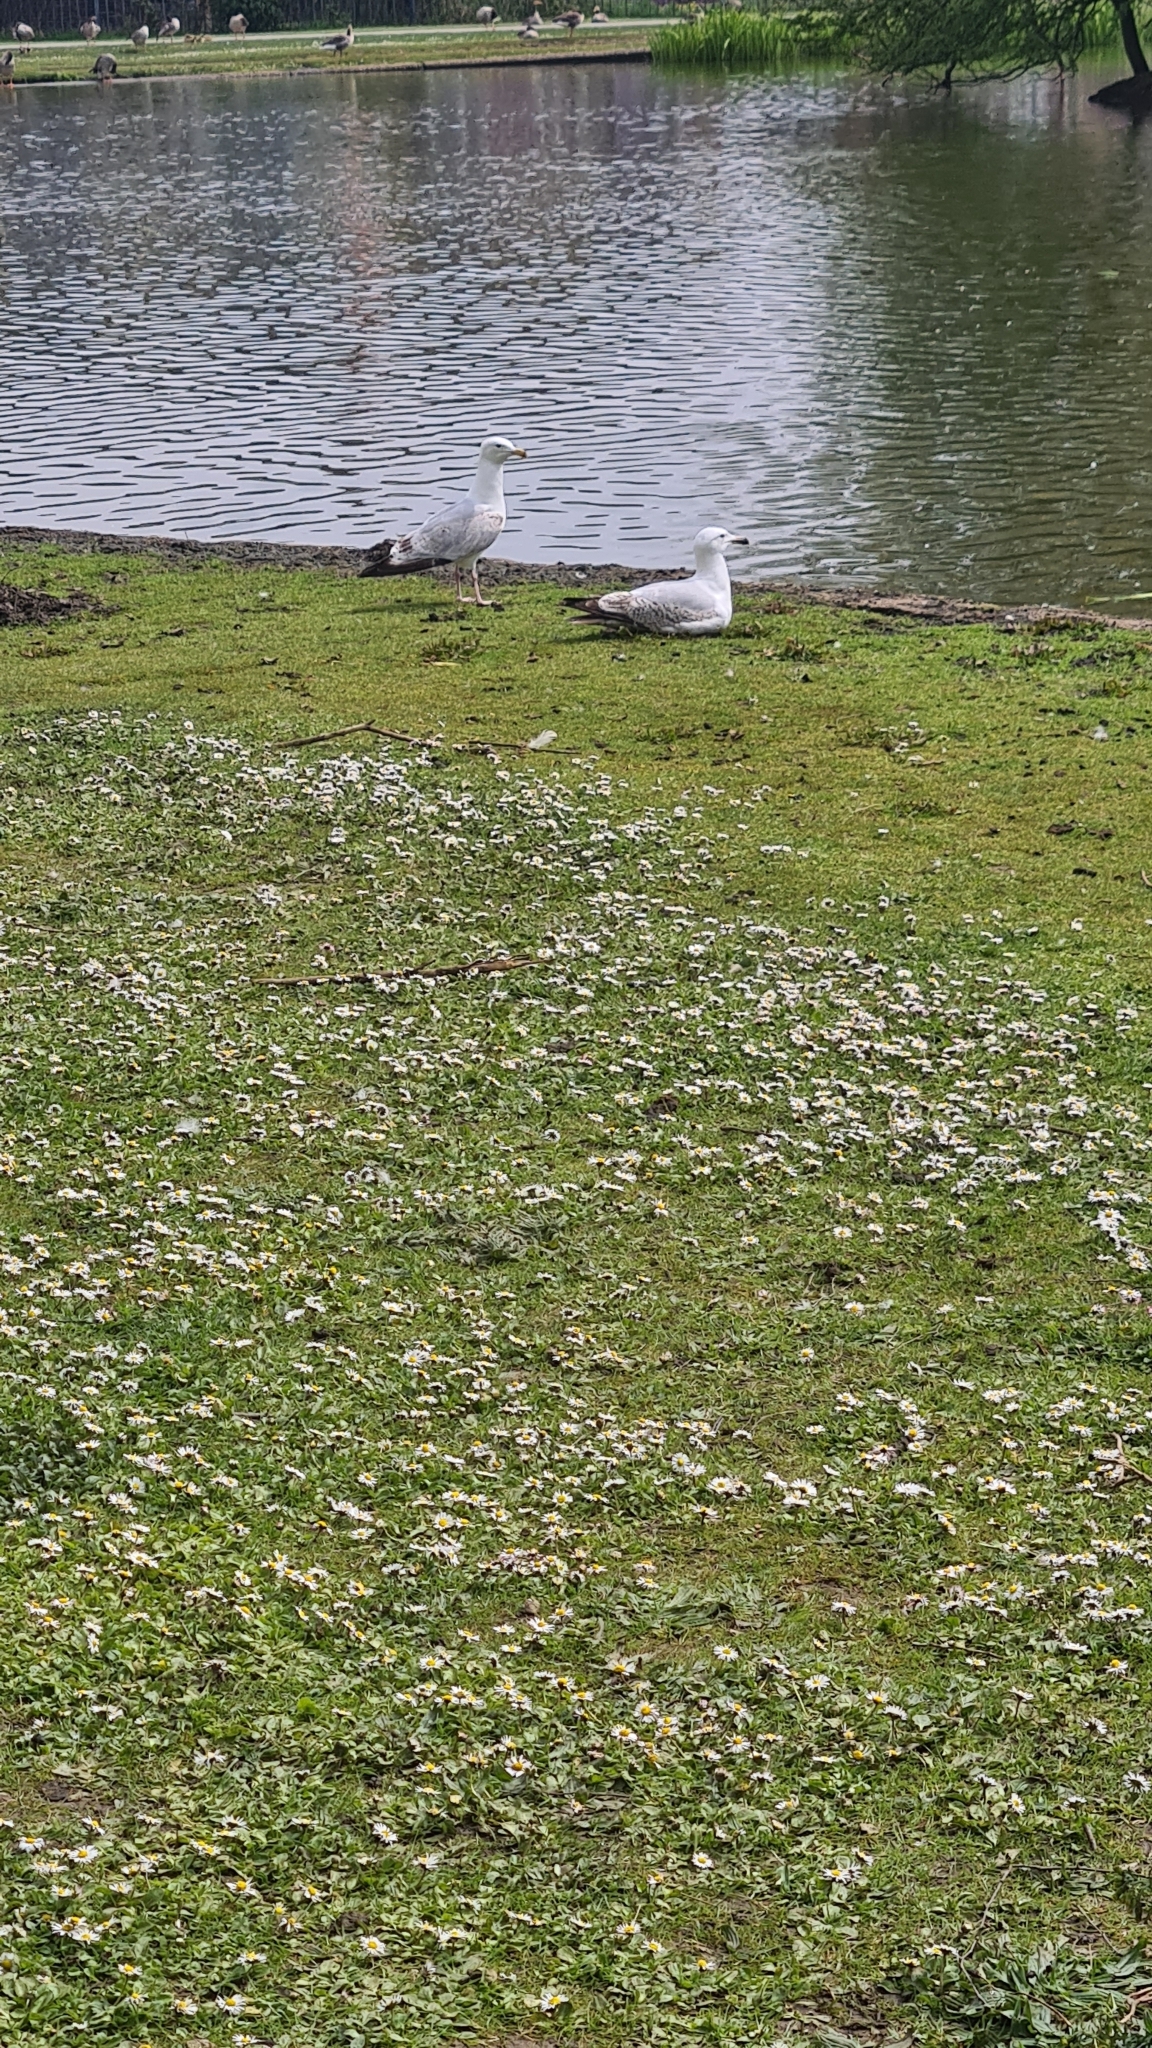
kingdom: Animalia
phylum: Chordata
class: Aves
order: Charadriiformes
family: Laridae
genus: Larus
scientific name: Larus argentatus
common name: Herring gull
